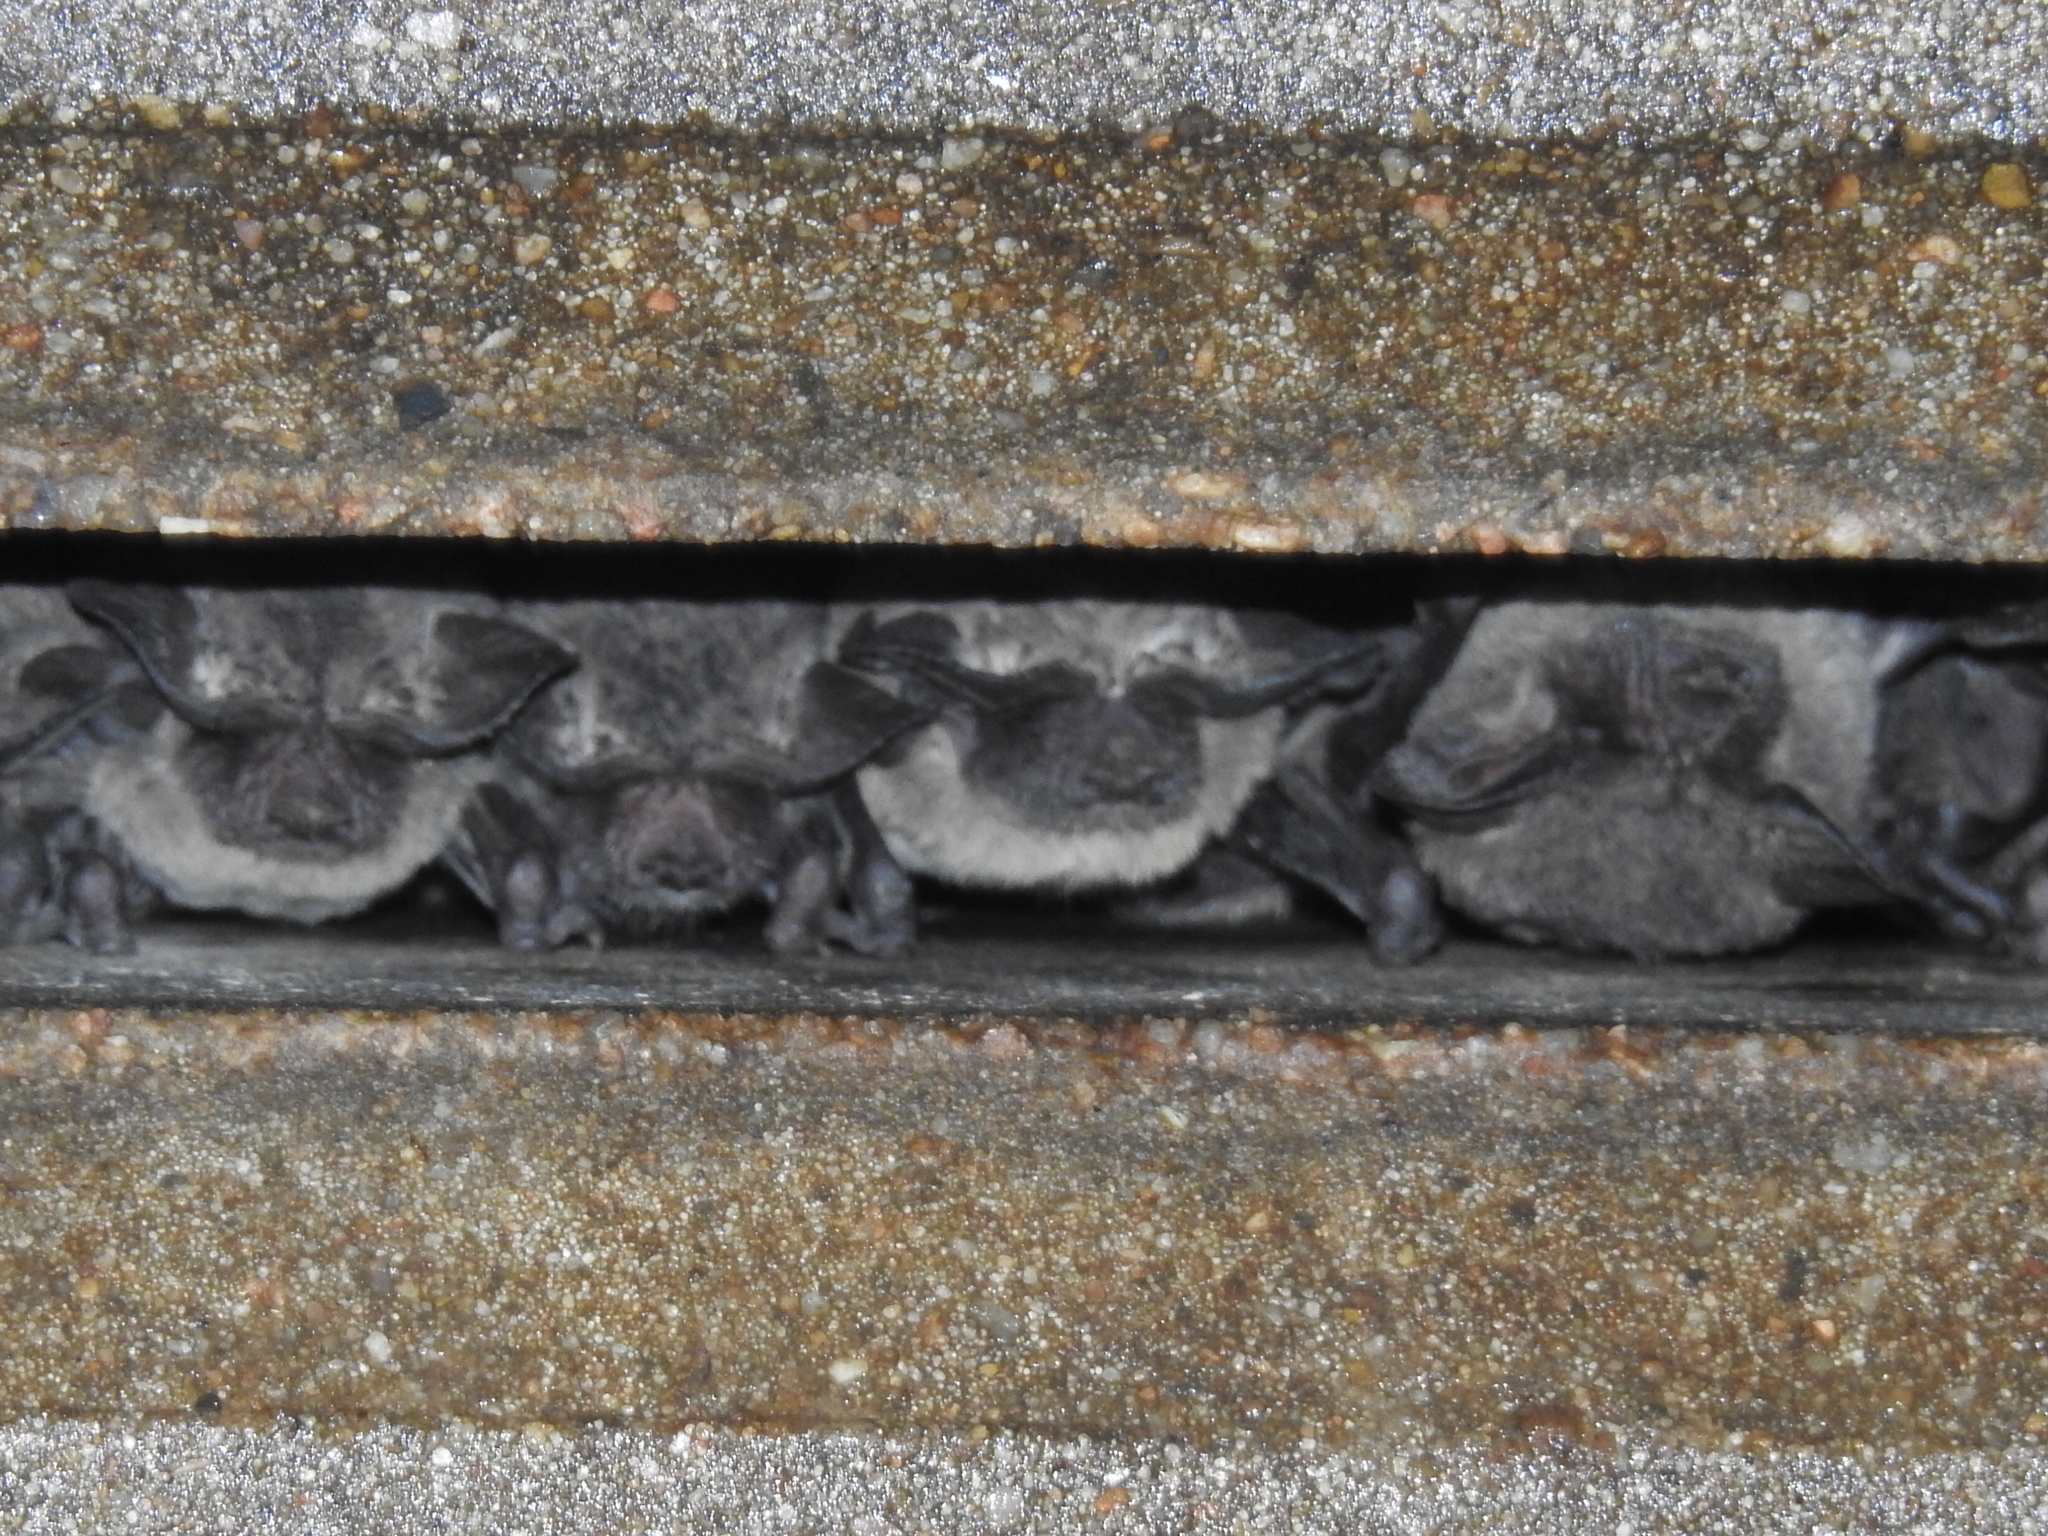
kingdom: Animalia
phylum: Chordata
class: Mammalia
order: Chiroptera
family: Molossidae
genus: Tadarida
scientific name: Tadarida brasiliensis
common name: Mexican free-tailed bat
